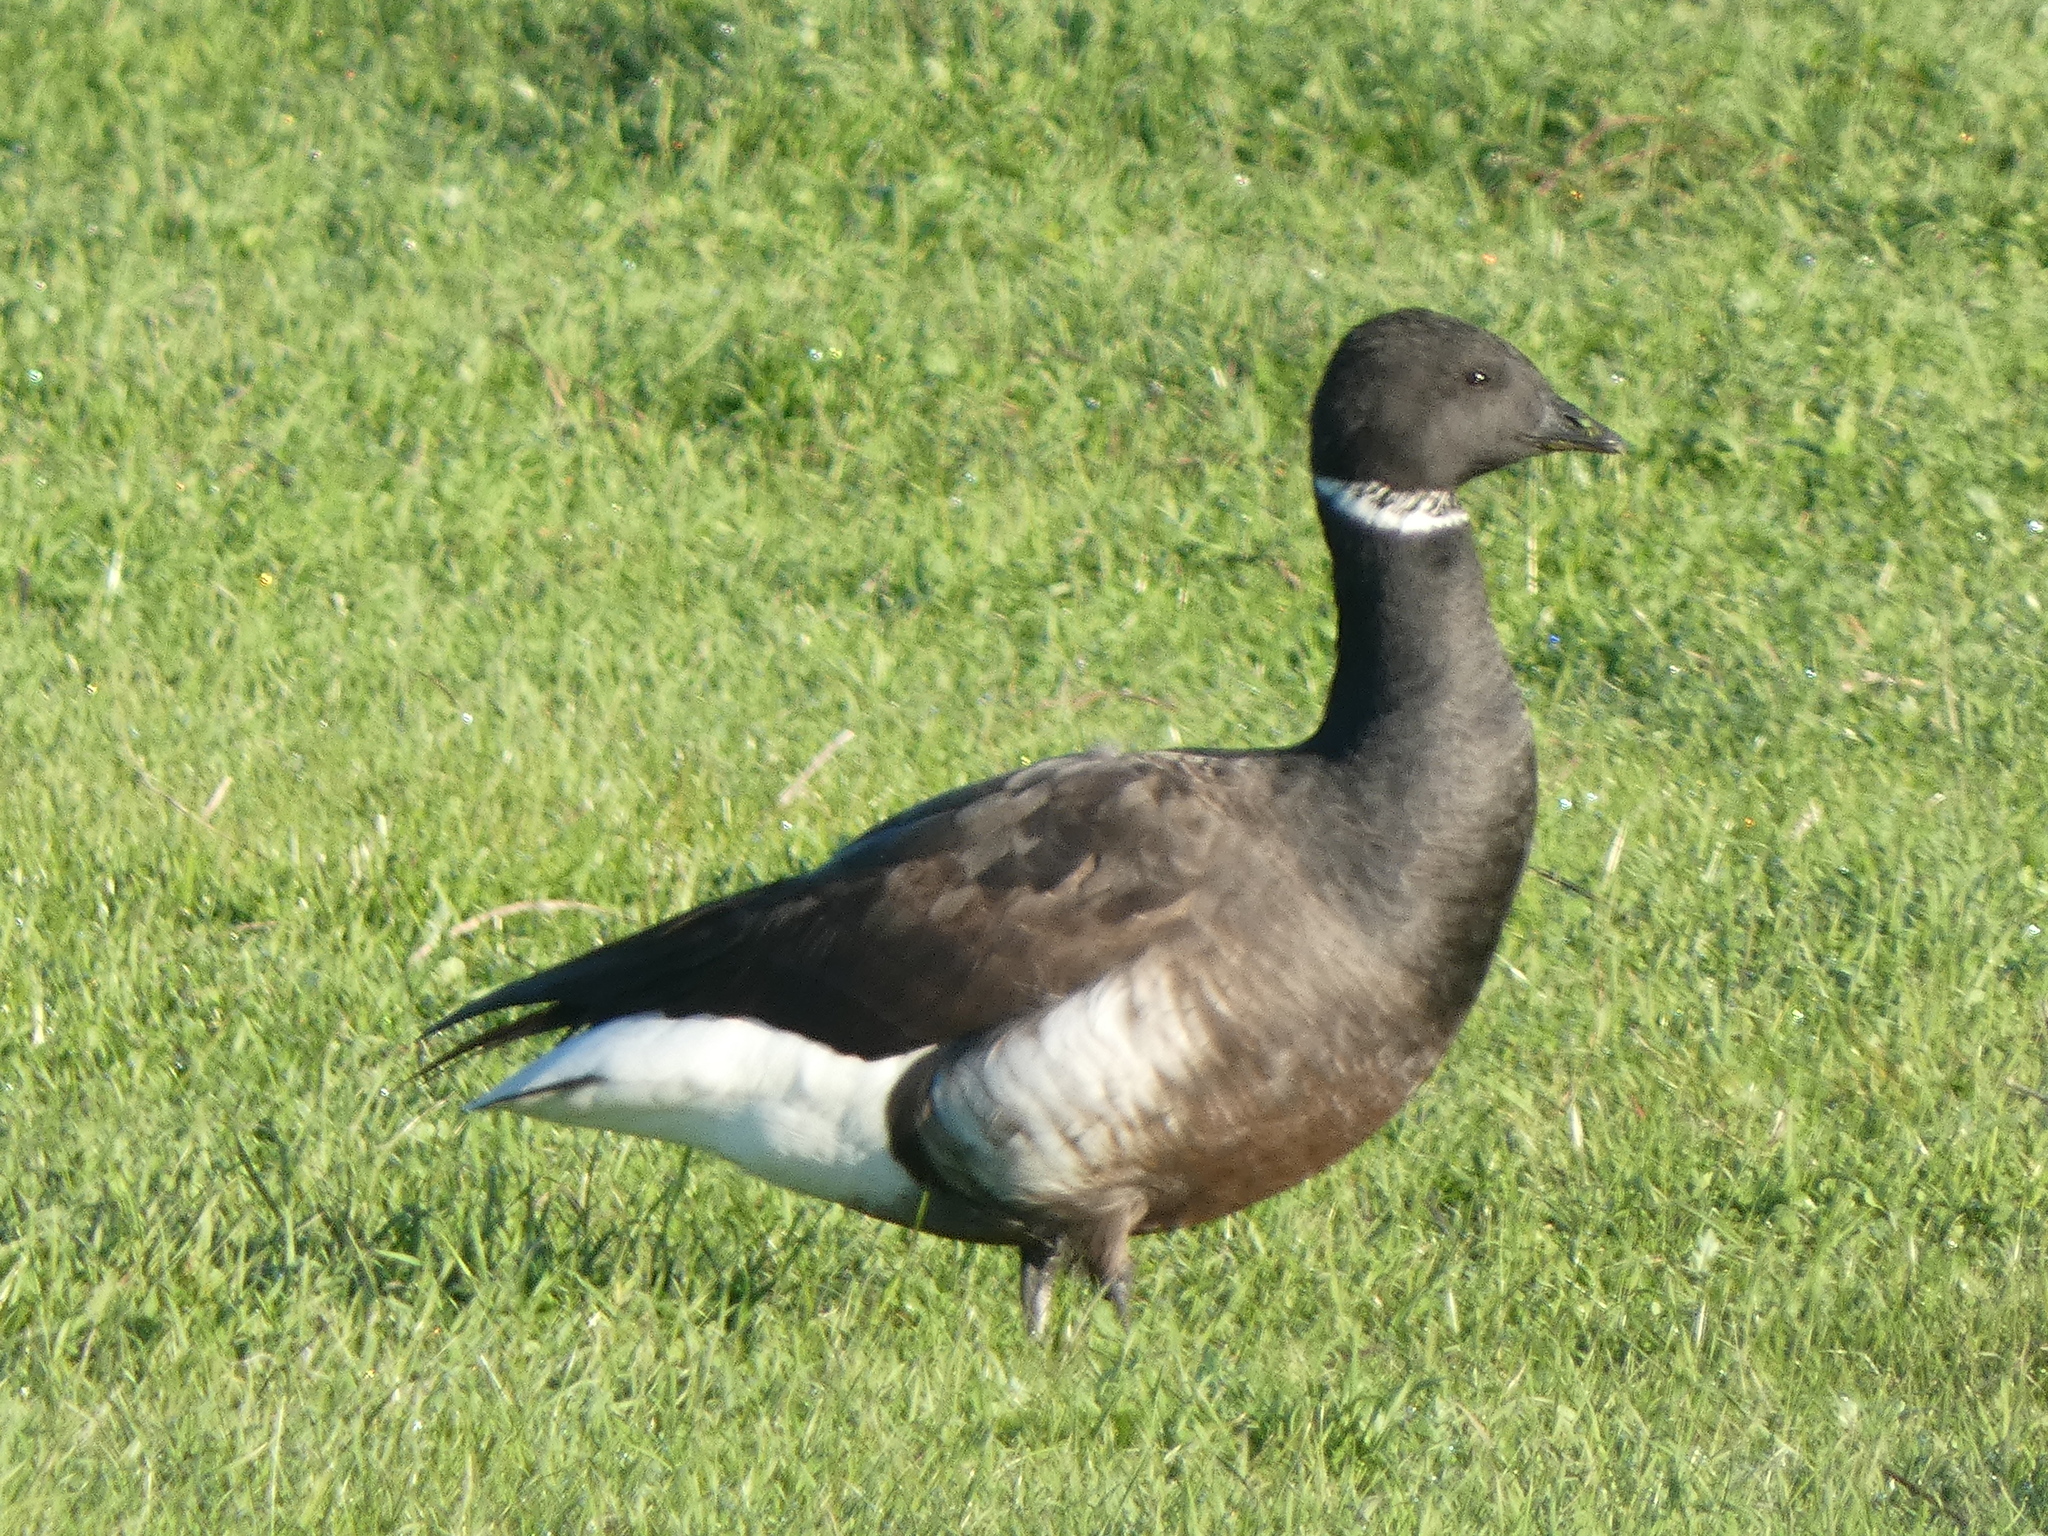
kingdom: Animalia
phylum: Chordata
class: Aves
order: Anseriformes
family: Anatidae
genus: Branta
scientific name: Branta bernicla
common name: Brant goose
